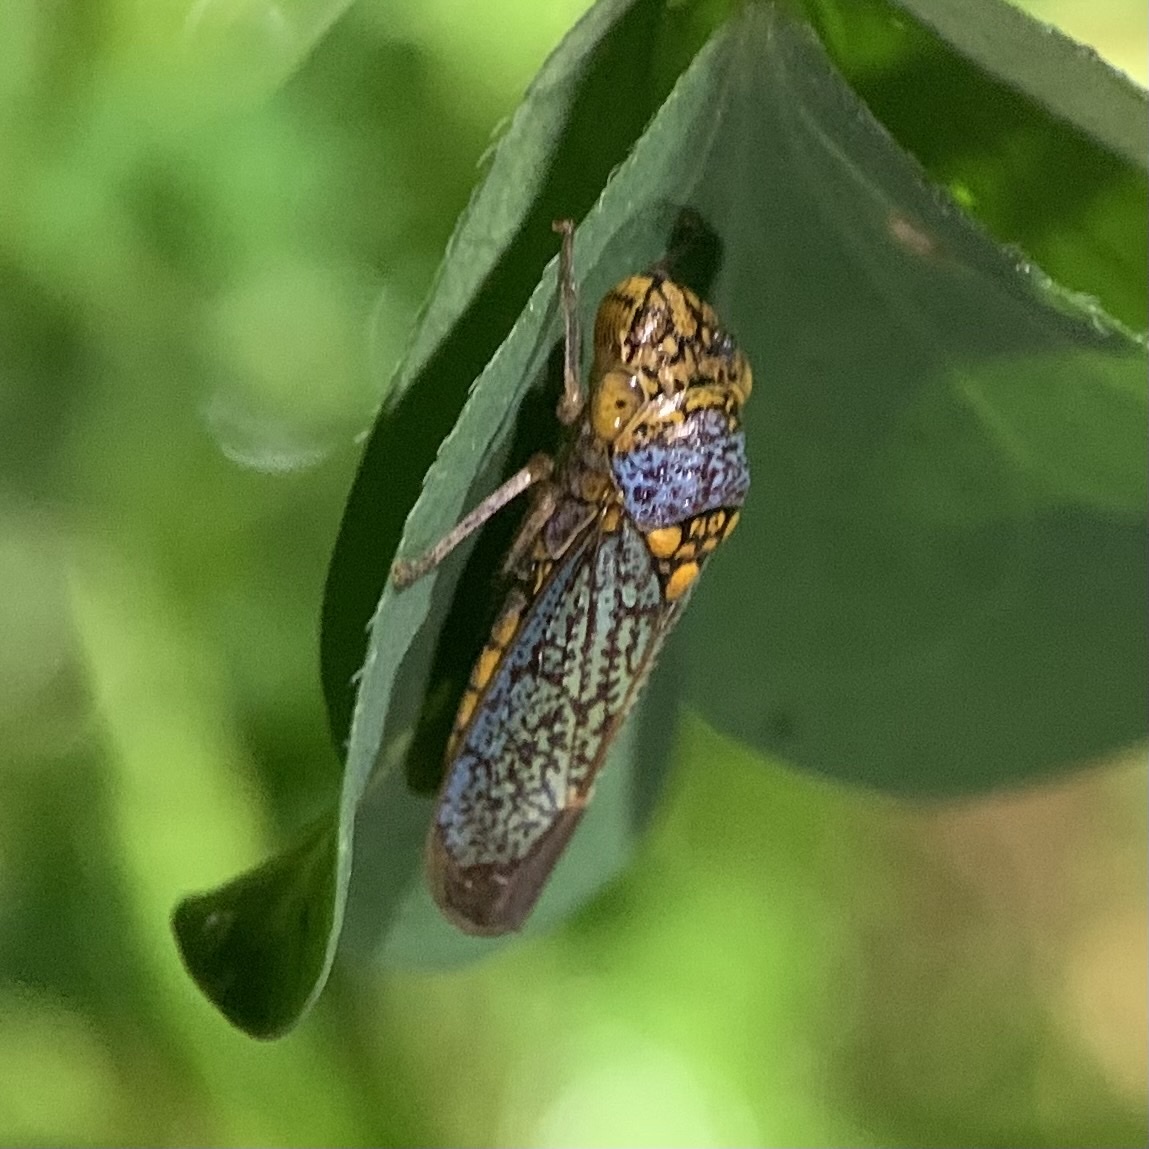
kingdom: Animalia
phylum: Arthropoda
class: Insecta
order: Hemiptera
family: Cicadellidae
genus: Oncometopia
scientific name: Oncometopia orbona
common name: Broad-headed sharpshooter
